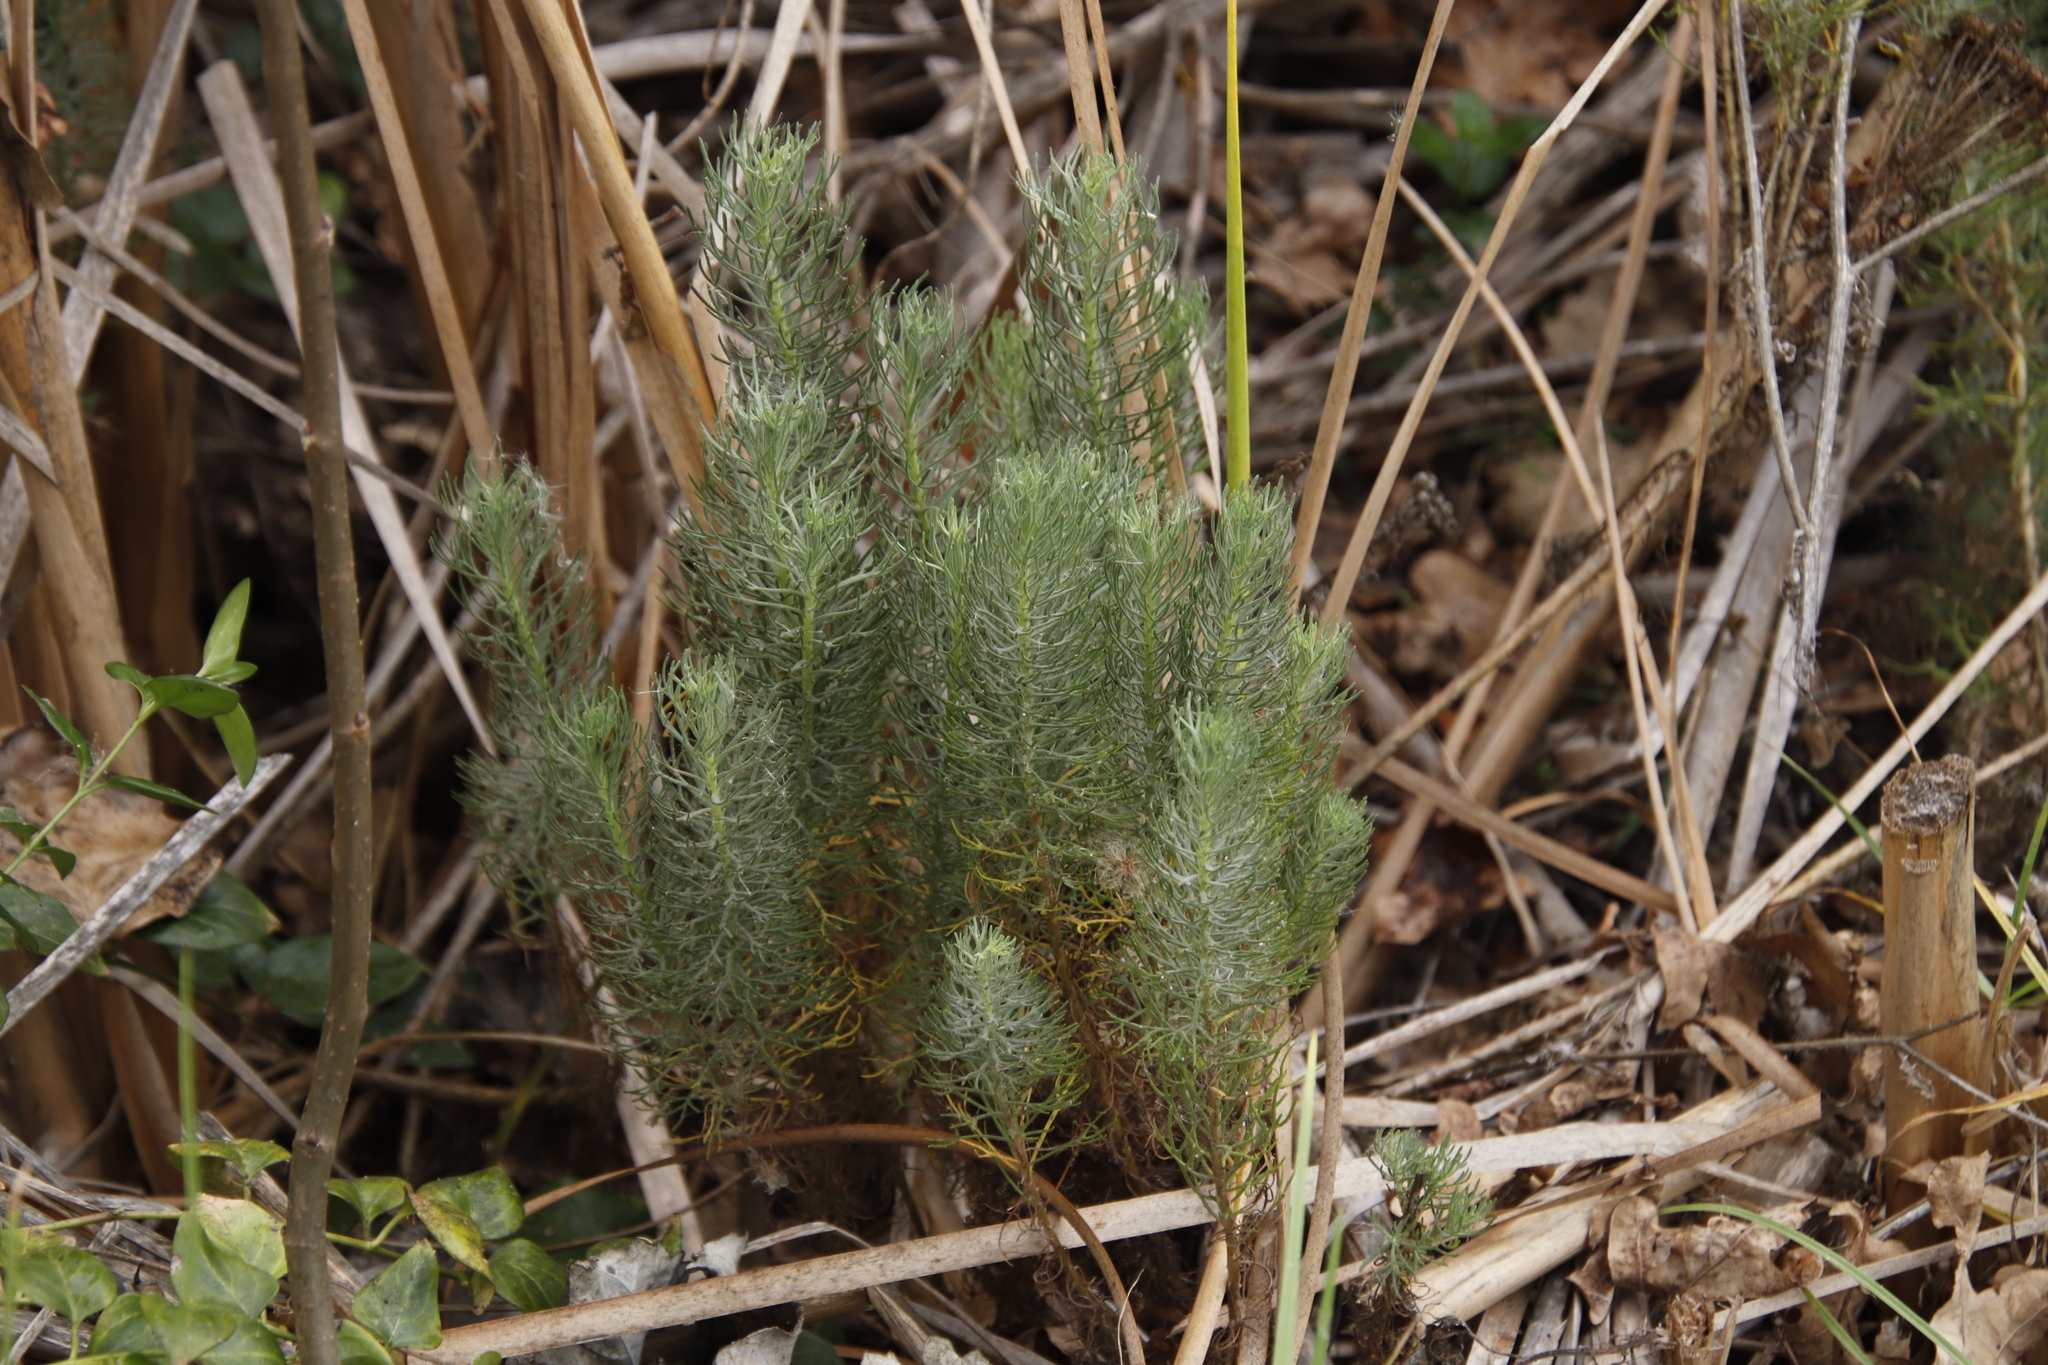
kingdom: Plantae
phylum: Tracheophyta
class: Magnoliopsida
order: Asterales
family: Asteraceae
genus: Athanasia
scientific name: Athanasia trifurcata
